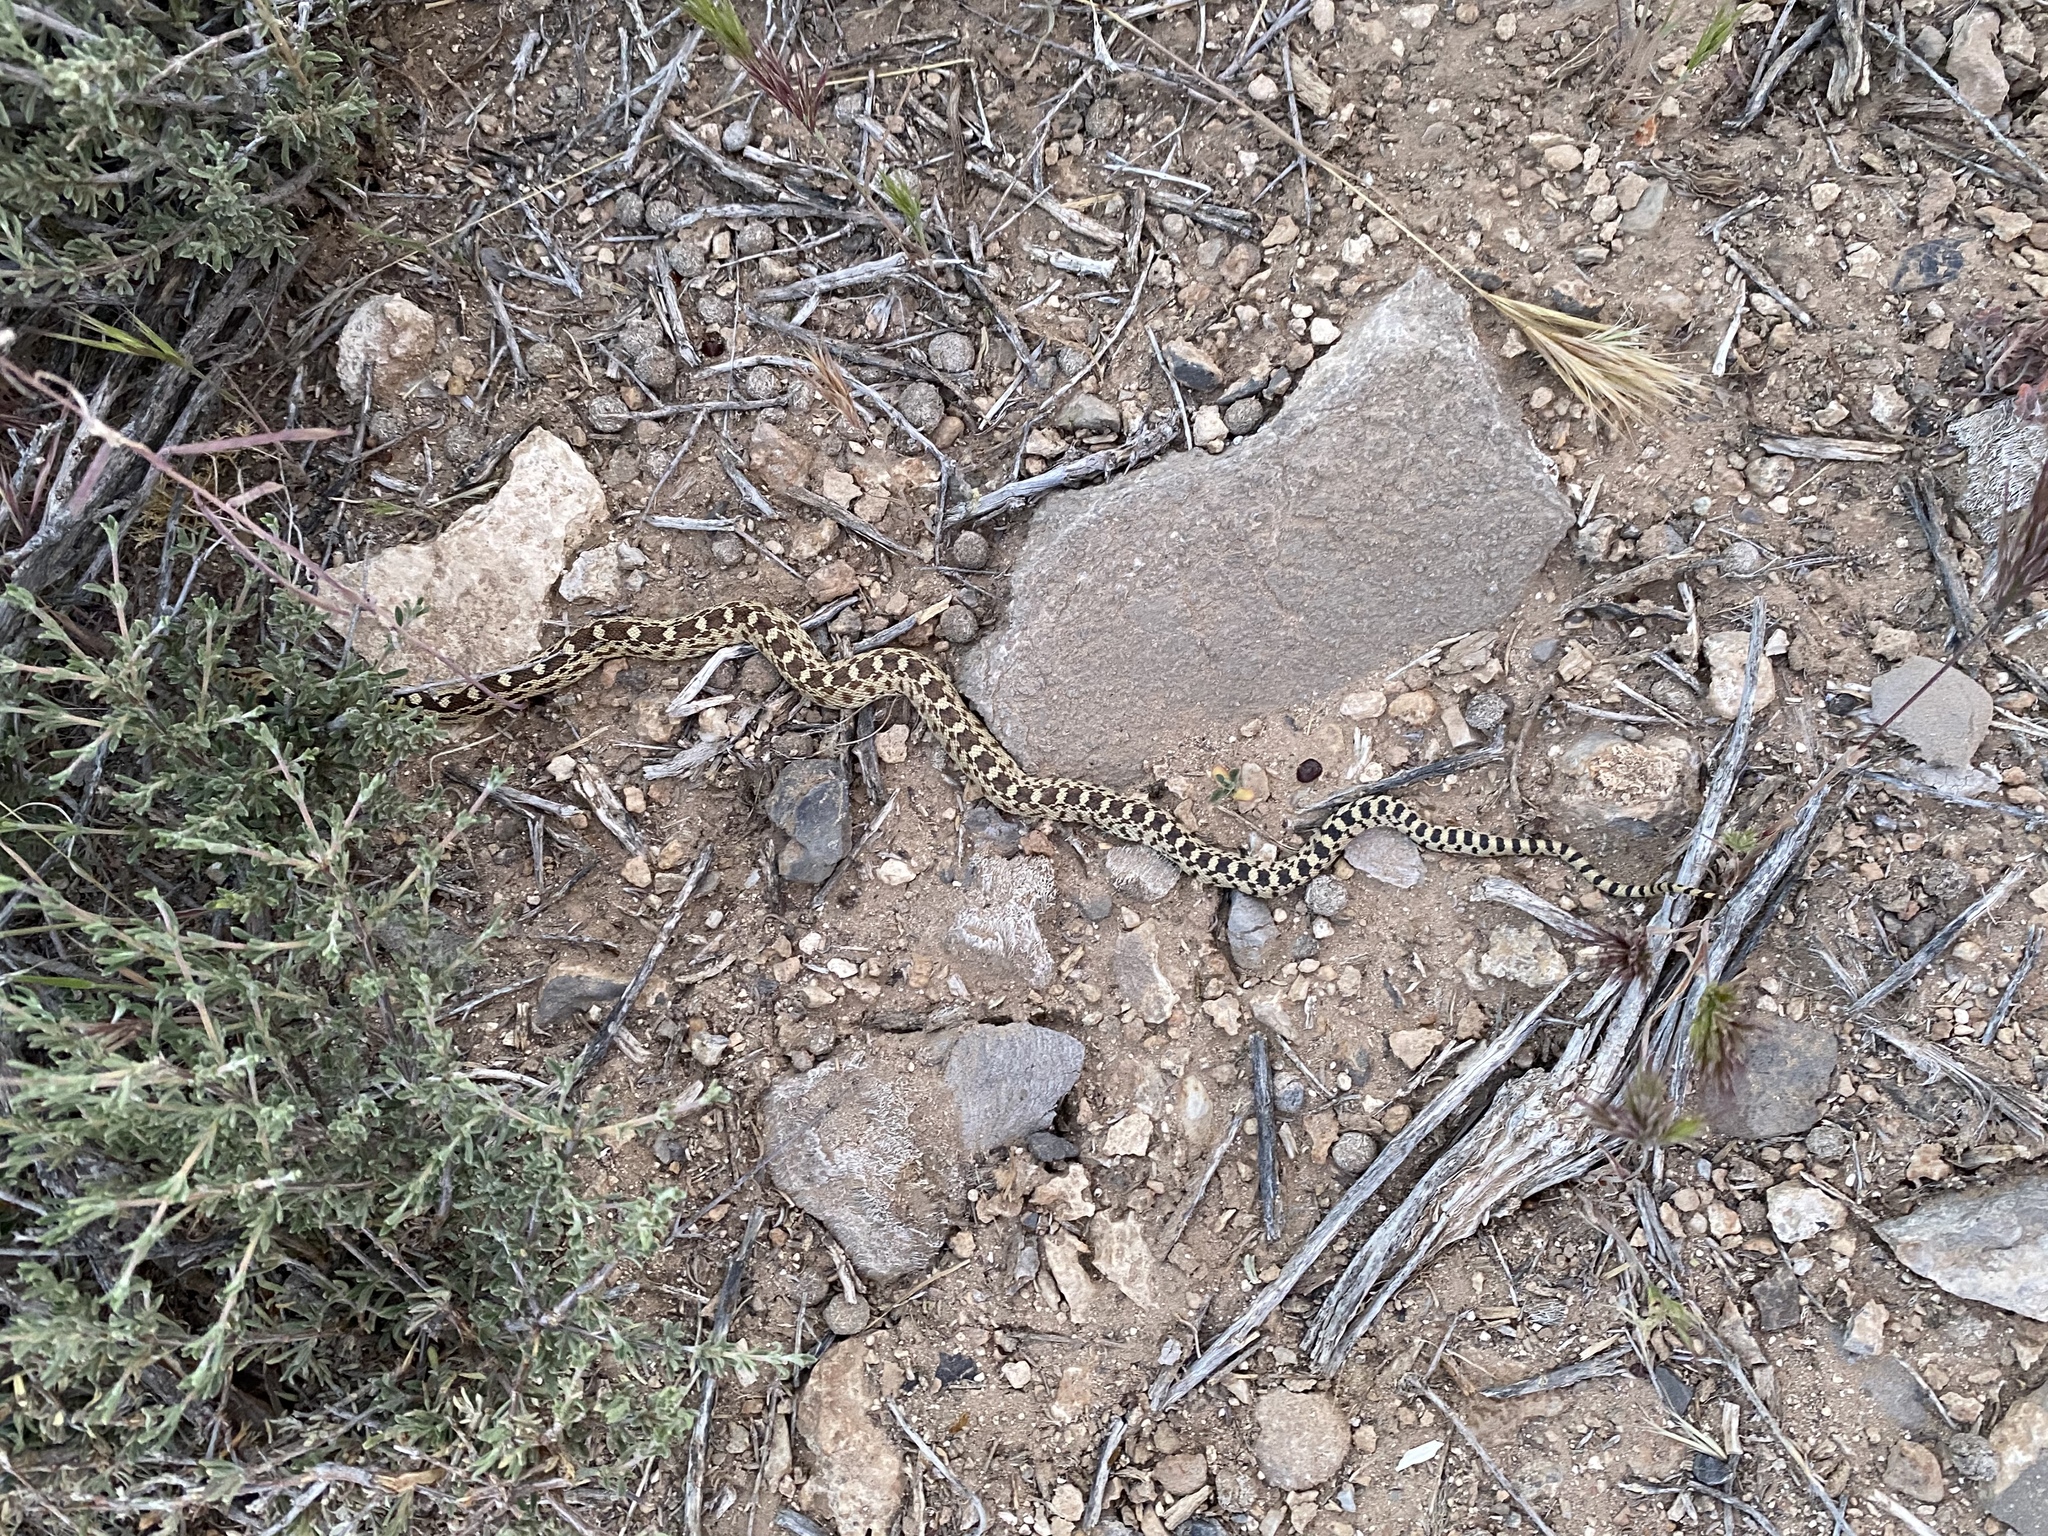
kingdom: Animalia
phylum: Chordata
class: Squamata
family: Colubridae
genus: Pituophis
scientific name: Pituophis catenifer
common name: Gopher snake
